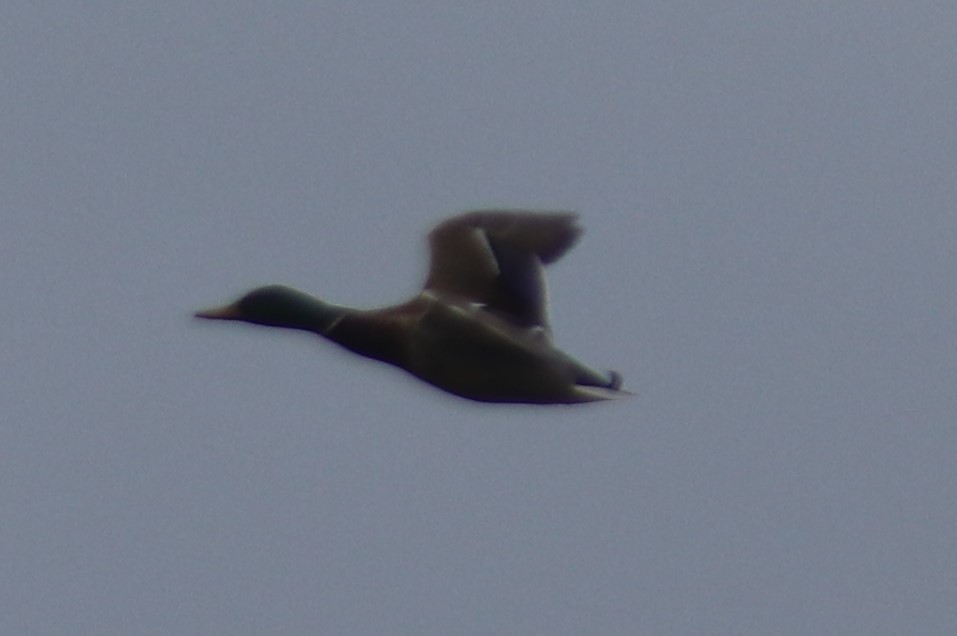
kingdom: Animalia
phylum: Chordata
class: Aves
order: Anseriformes
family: Anatidae
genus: Anas
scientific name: Anas platyrhynchos
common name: Mallard
